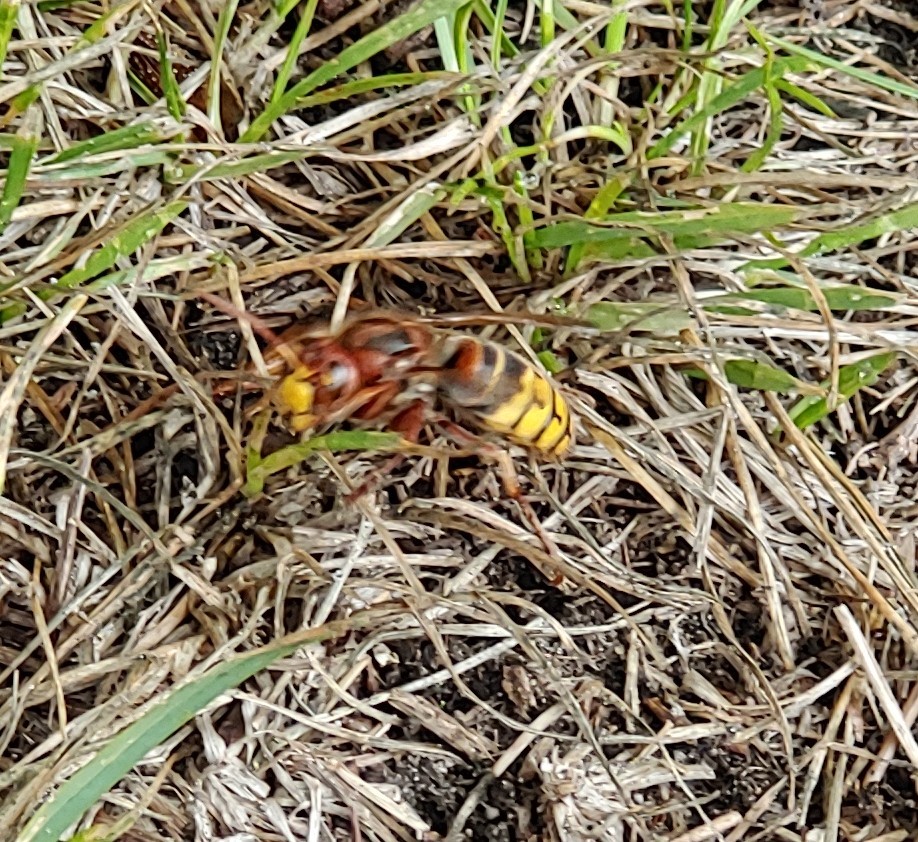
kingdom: Animalia
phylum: Arthropoda
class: Insecta
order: Hymenoptera
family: Vespidae
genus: Vespa
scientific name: Vespa crabro
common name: Hornet
